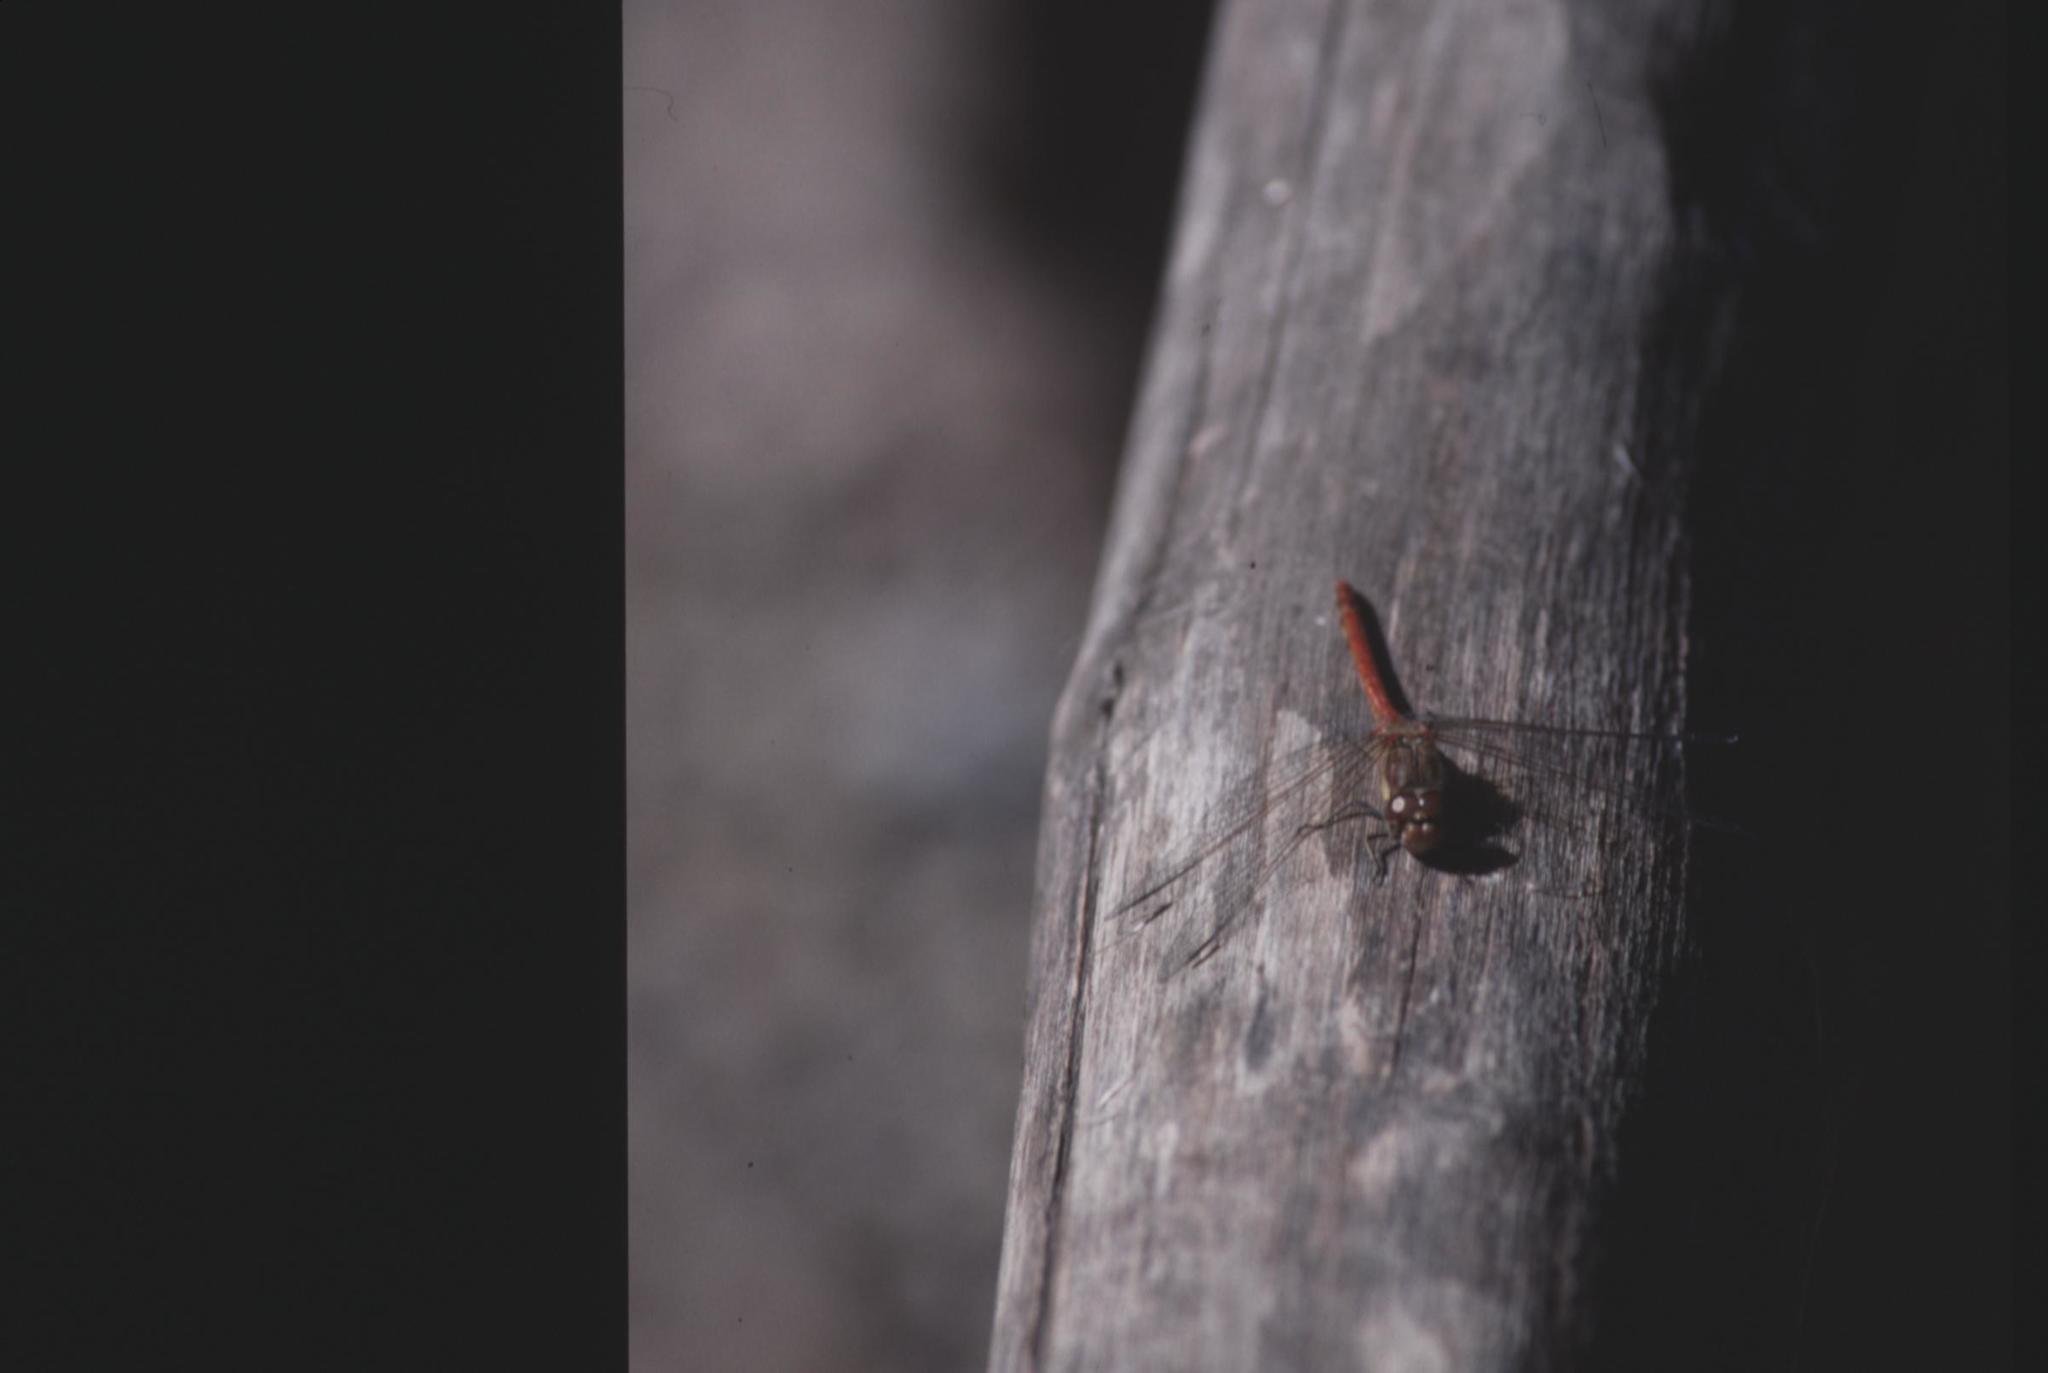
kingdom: Animalia
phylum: Arthropoda
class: Insecta
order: Odonata
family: Libellulidae
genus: Sympetrum
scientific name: Sympetrum striolatum
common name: Common darter
